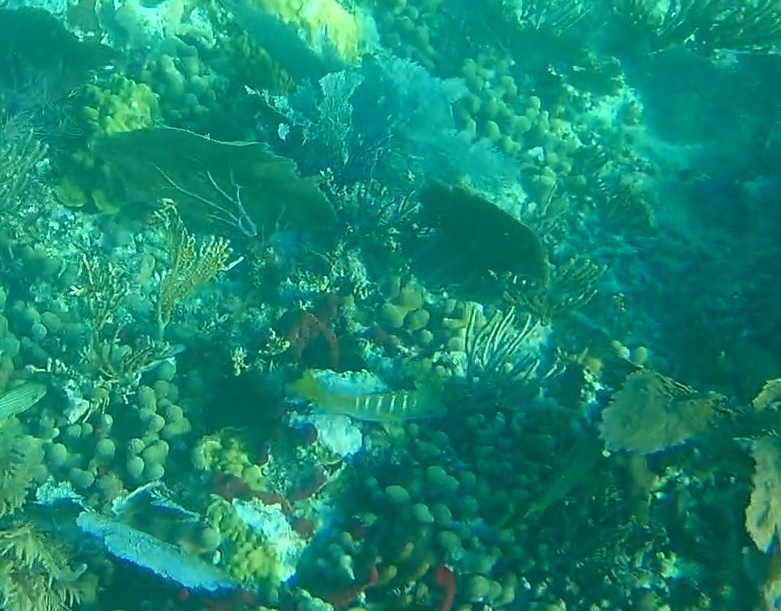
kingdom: Animalia
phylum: Chordata
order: Perciformes
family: Lutjanidae
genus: Lutjanus
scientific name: Lutjanus apodus
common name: Schoolmaster
